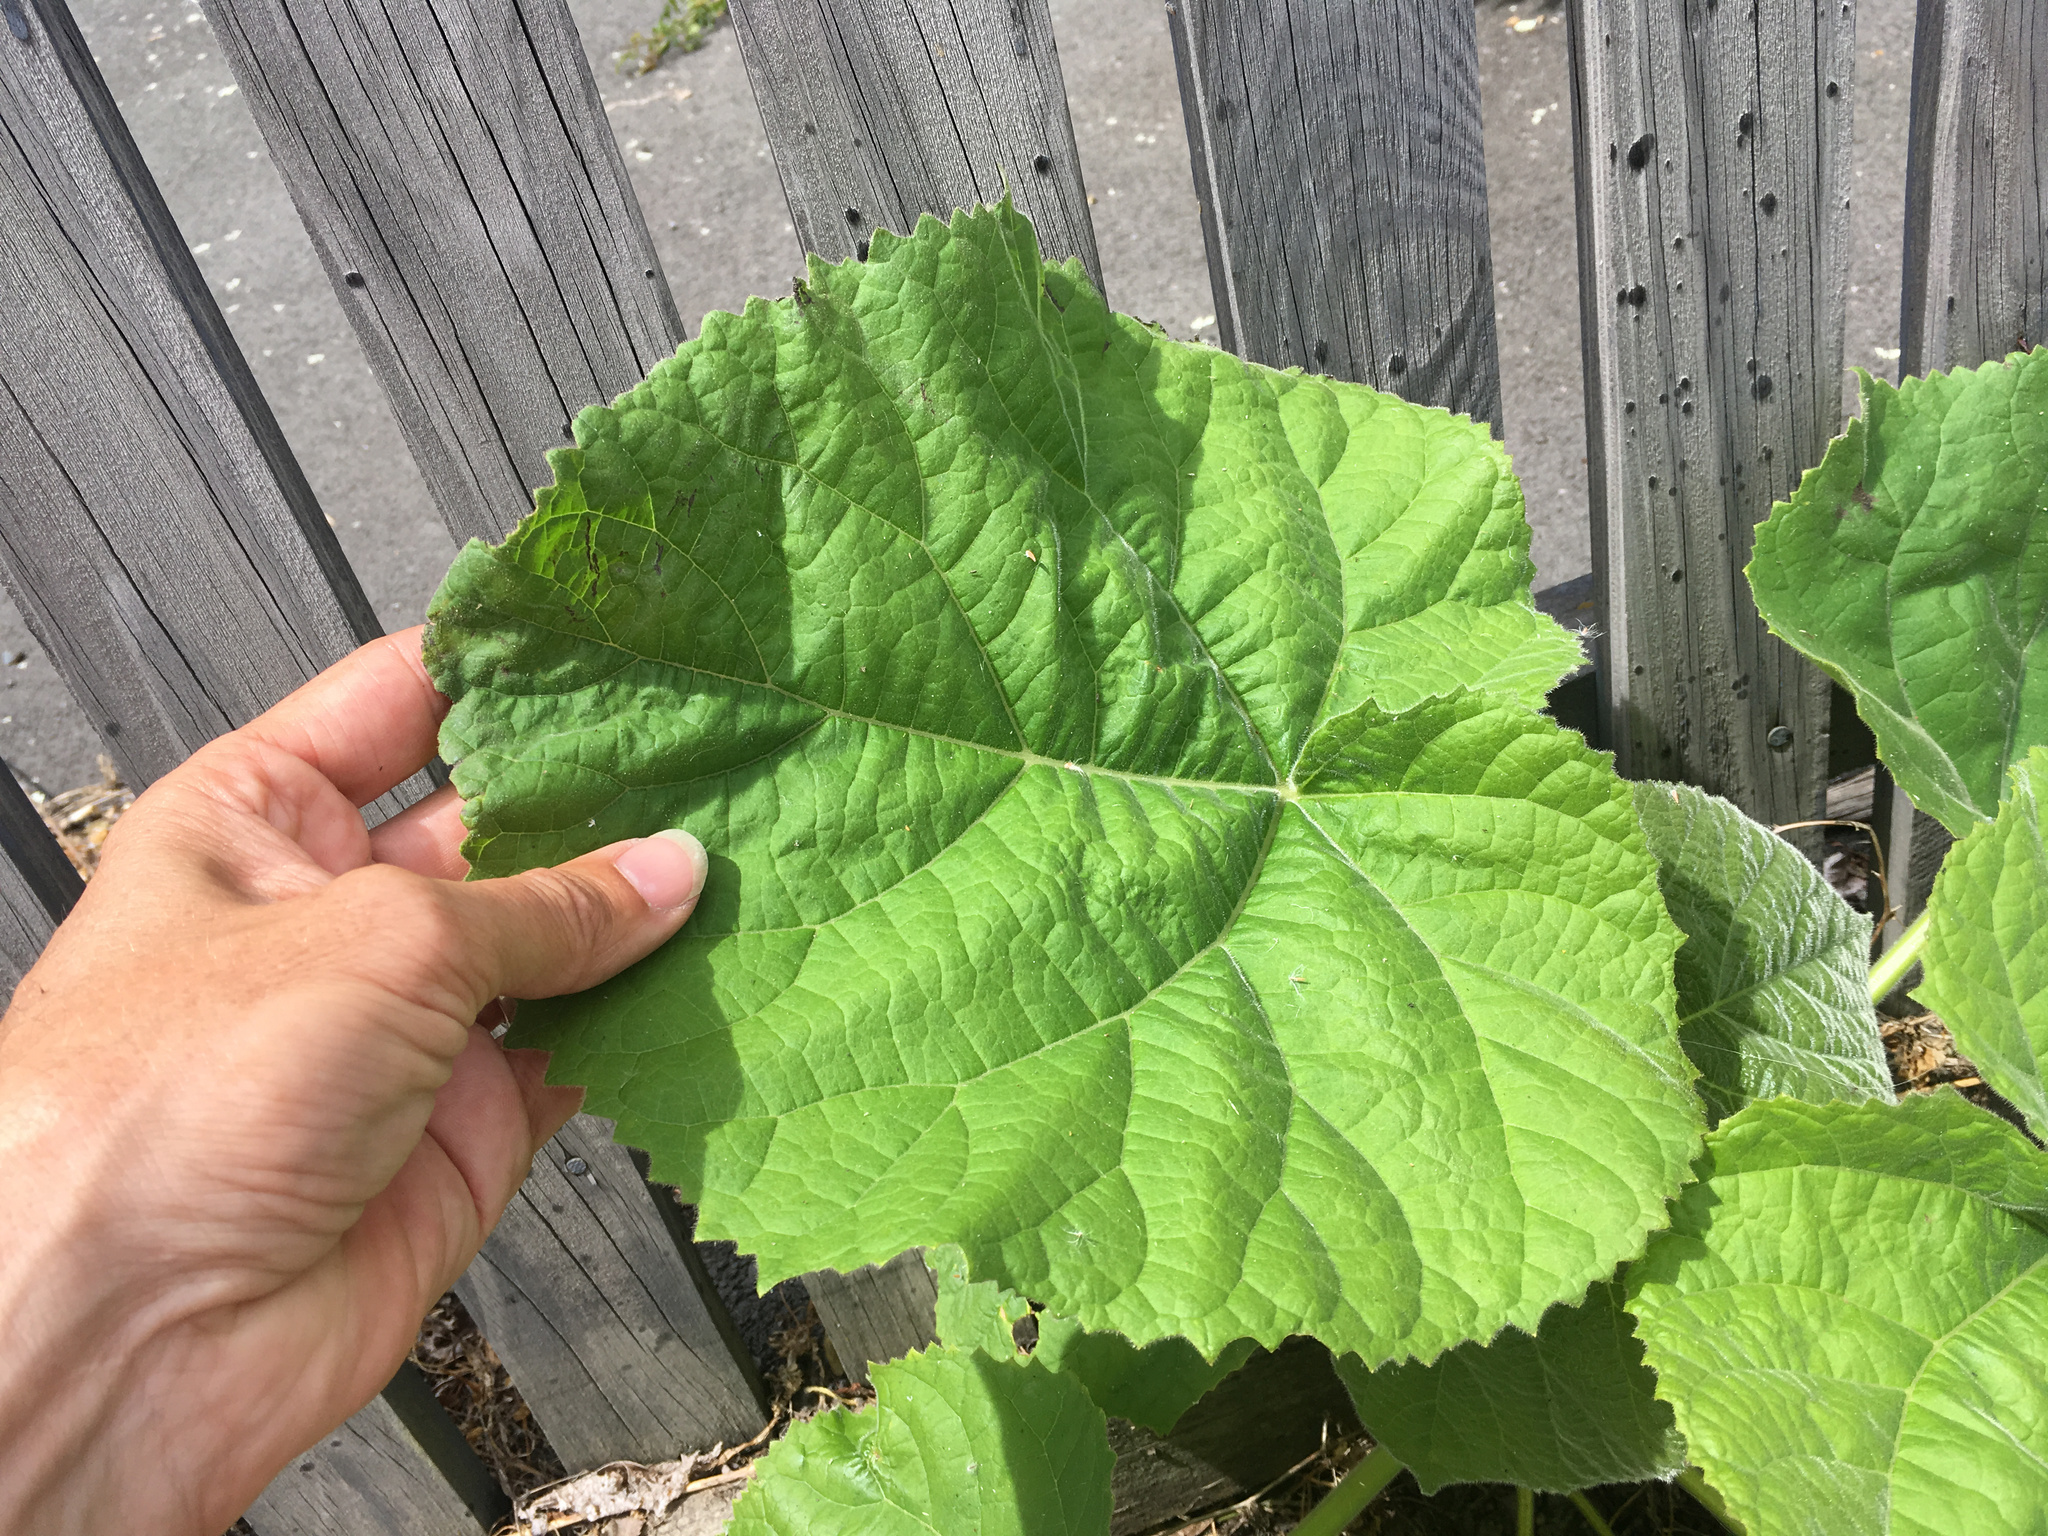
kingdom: Plantae
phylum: Tracheophyta
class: Magnoliopsida
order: Lamiales
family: Paulowniaceae
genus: Paulownia
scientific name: Paulownia tomentosa
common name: Foxglove-tree
